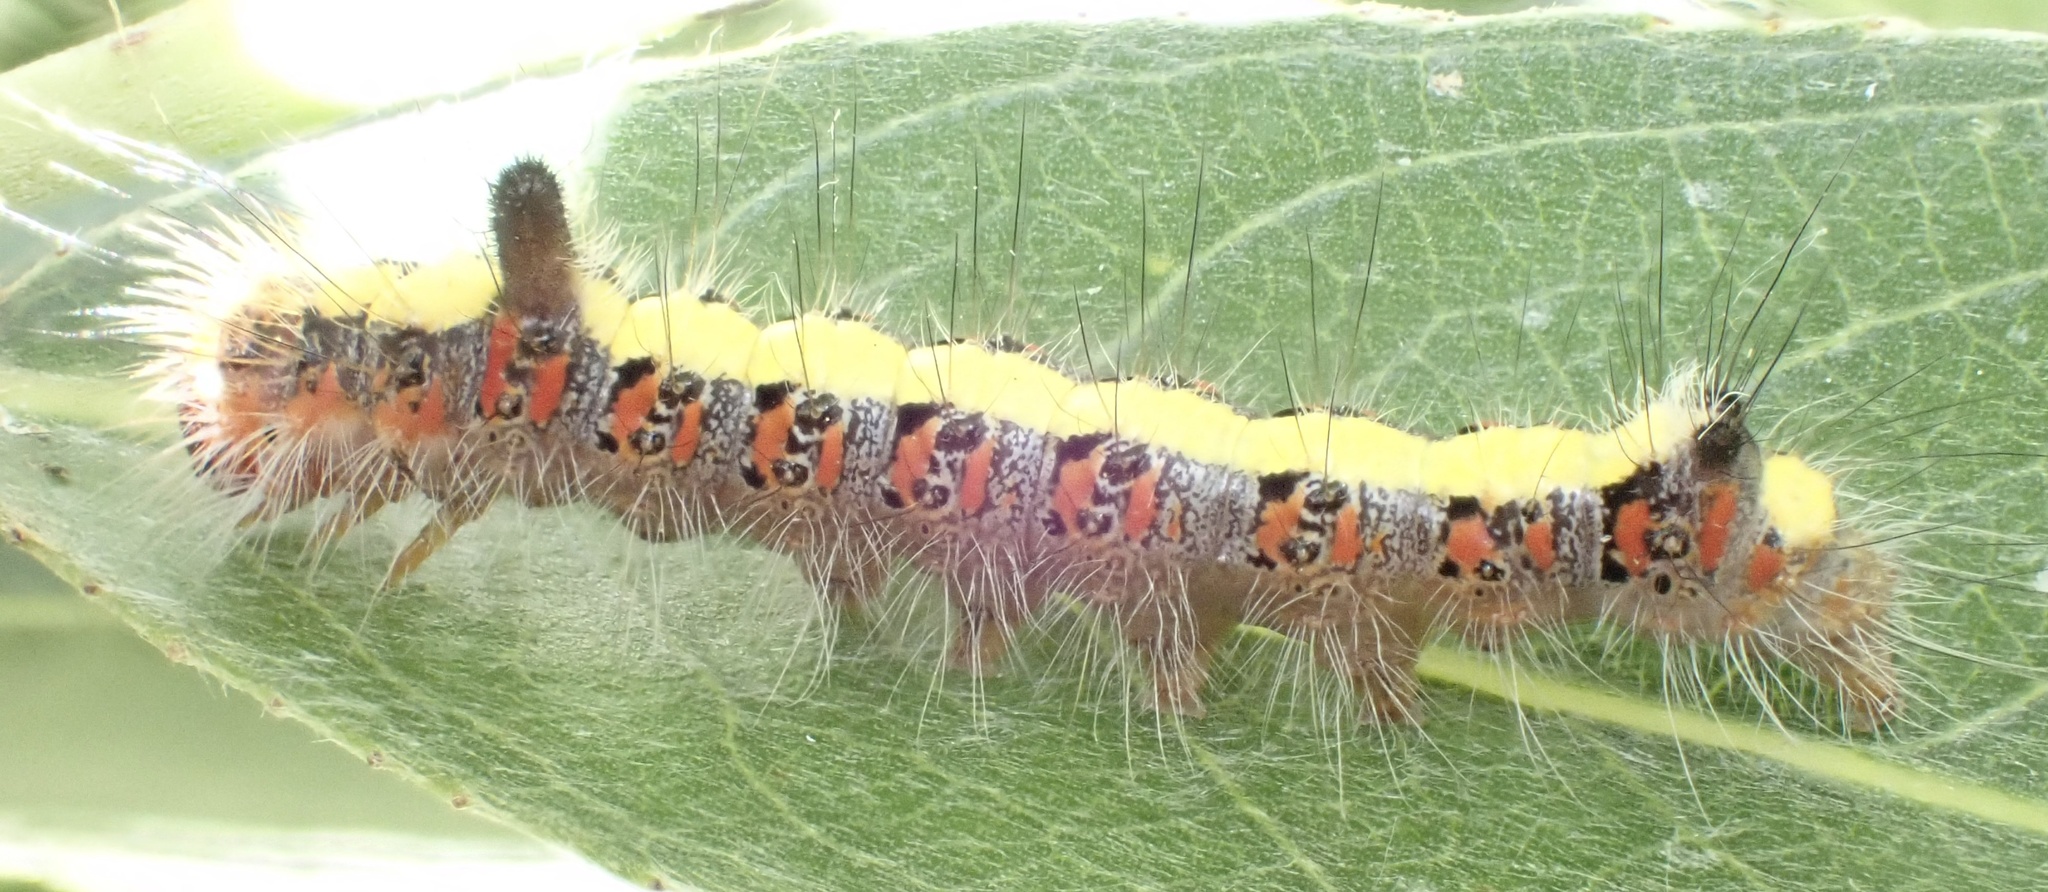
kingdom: Animalia
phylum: Arthropoda
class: Insecta
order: Lepidoptera
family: Noctuidae
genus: Acronicta
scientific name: Acronicta psi
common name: Grey dagger
